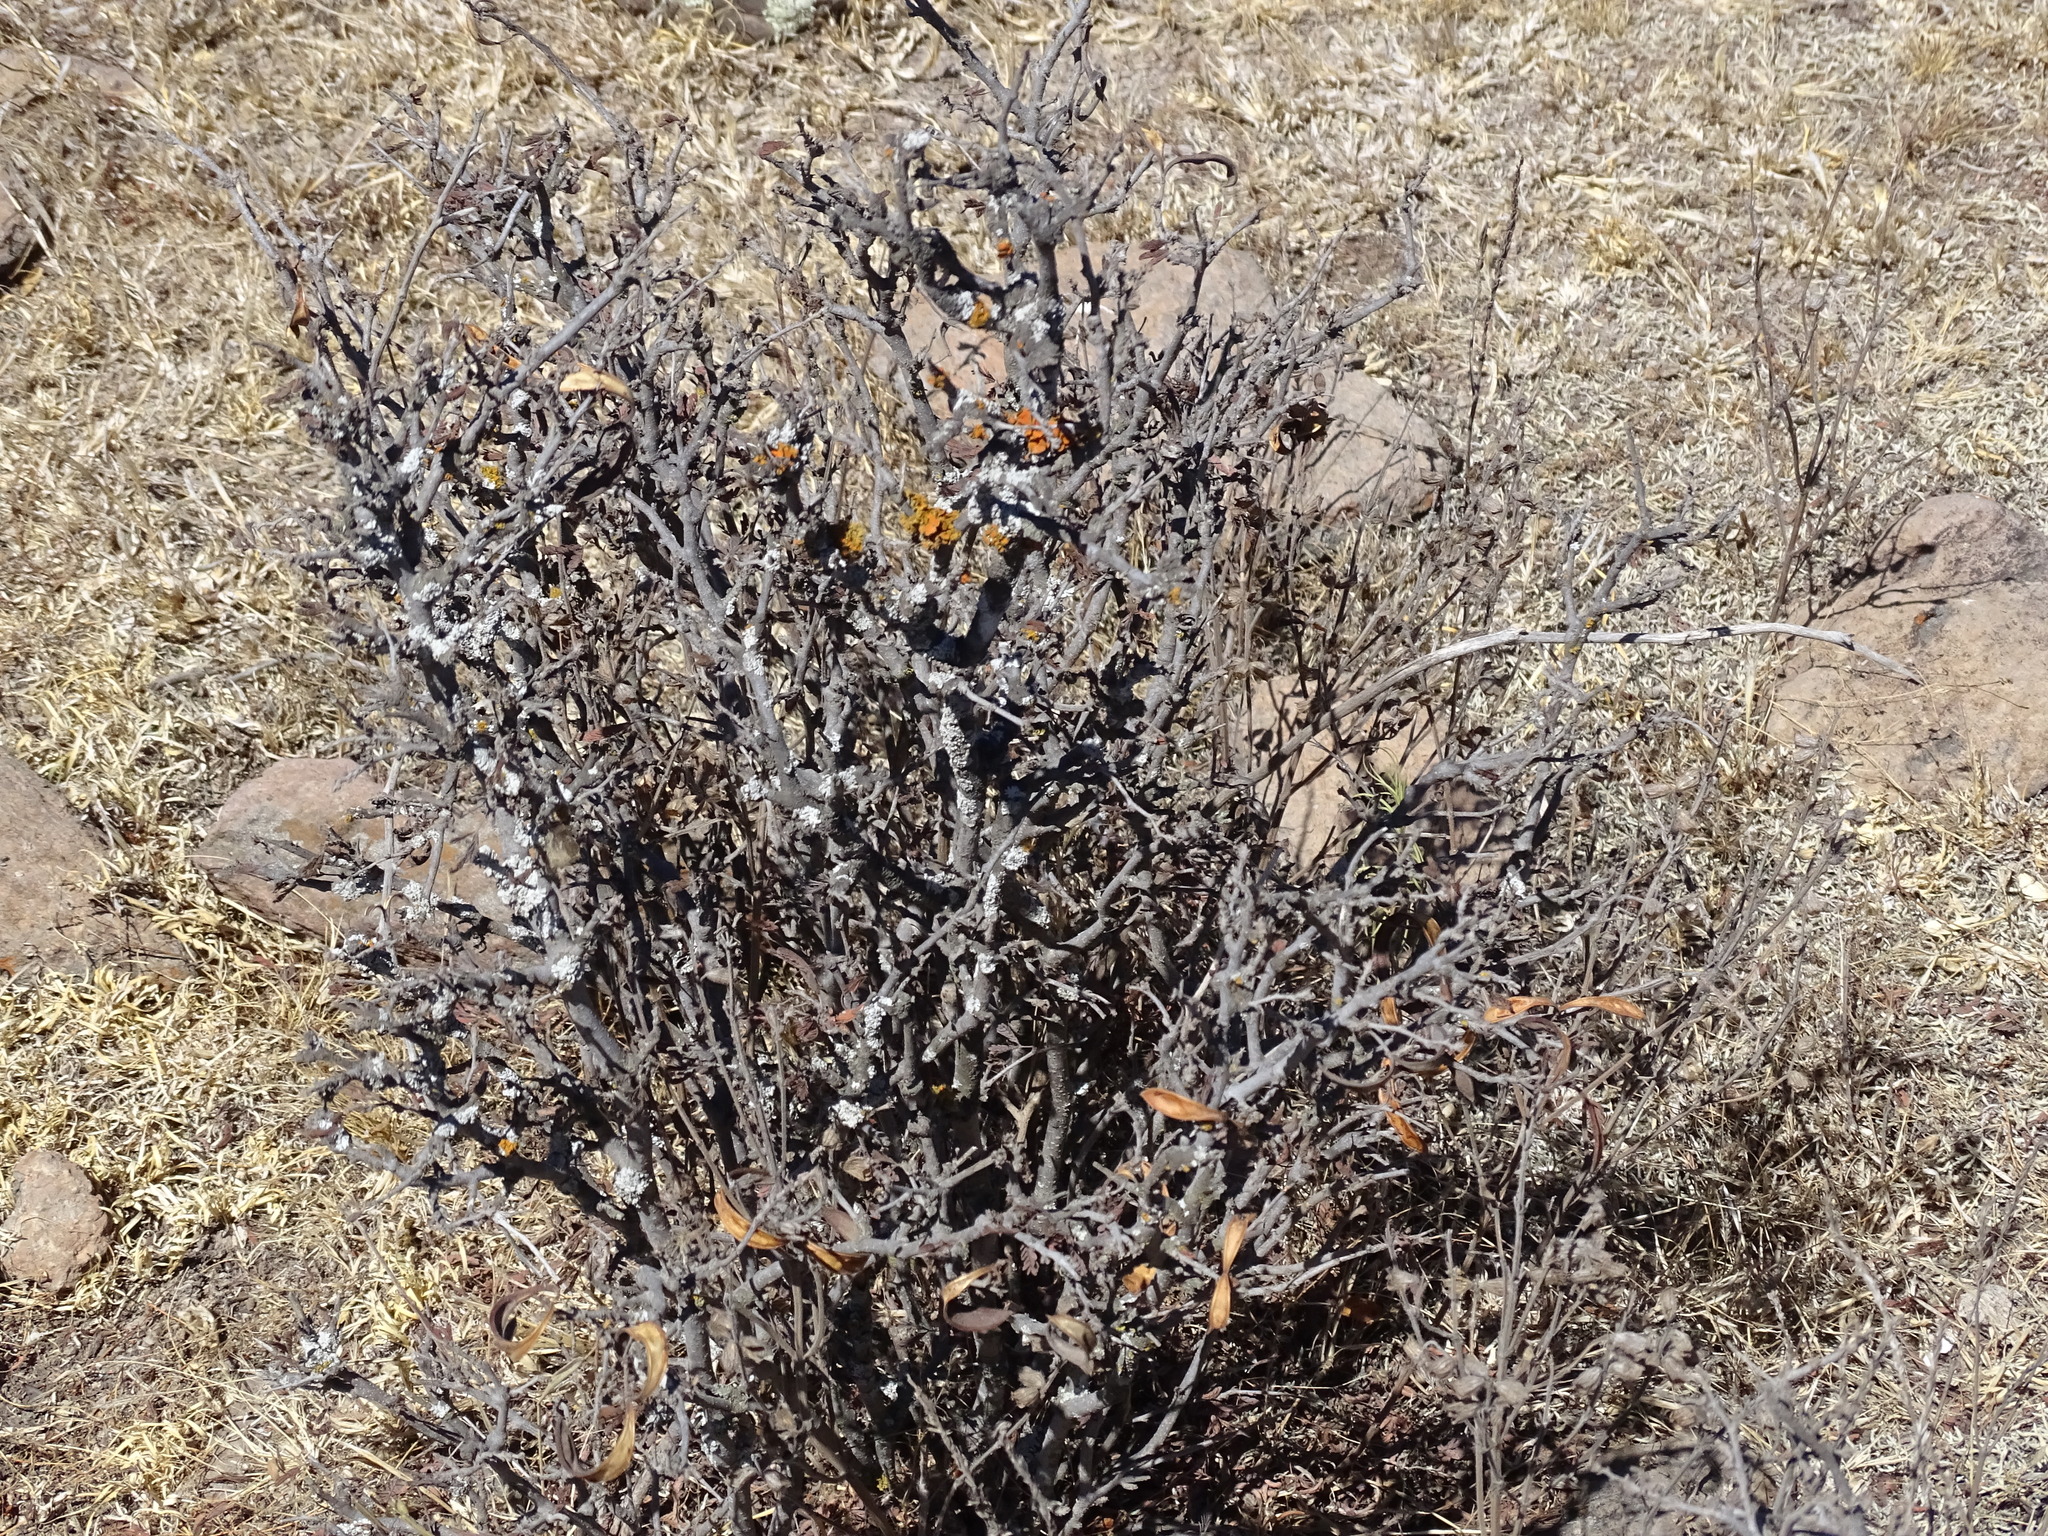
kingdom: Plantae
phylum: Tracheophyta
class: Magnoliopsida
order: Fabales
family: Fabaceae
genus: Calliandra
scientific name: Calliandra eriophylla
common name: Fairy-duster
